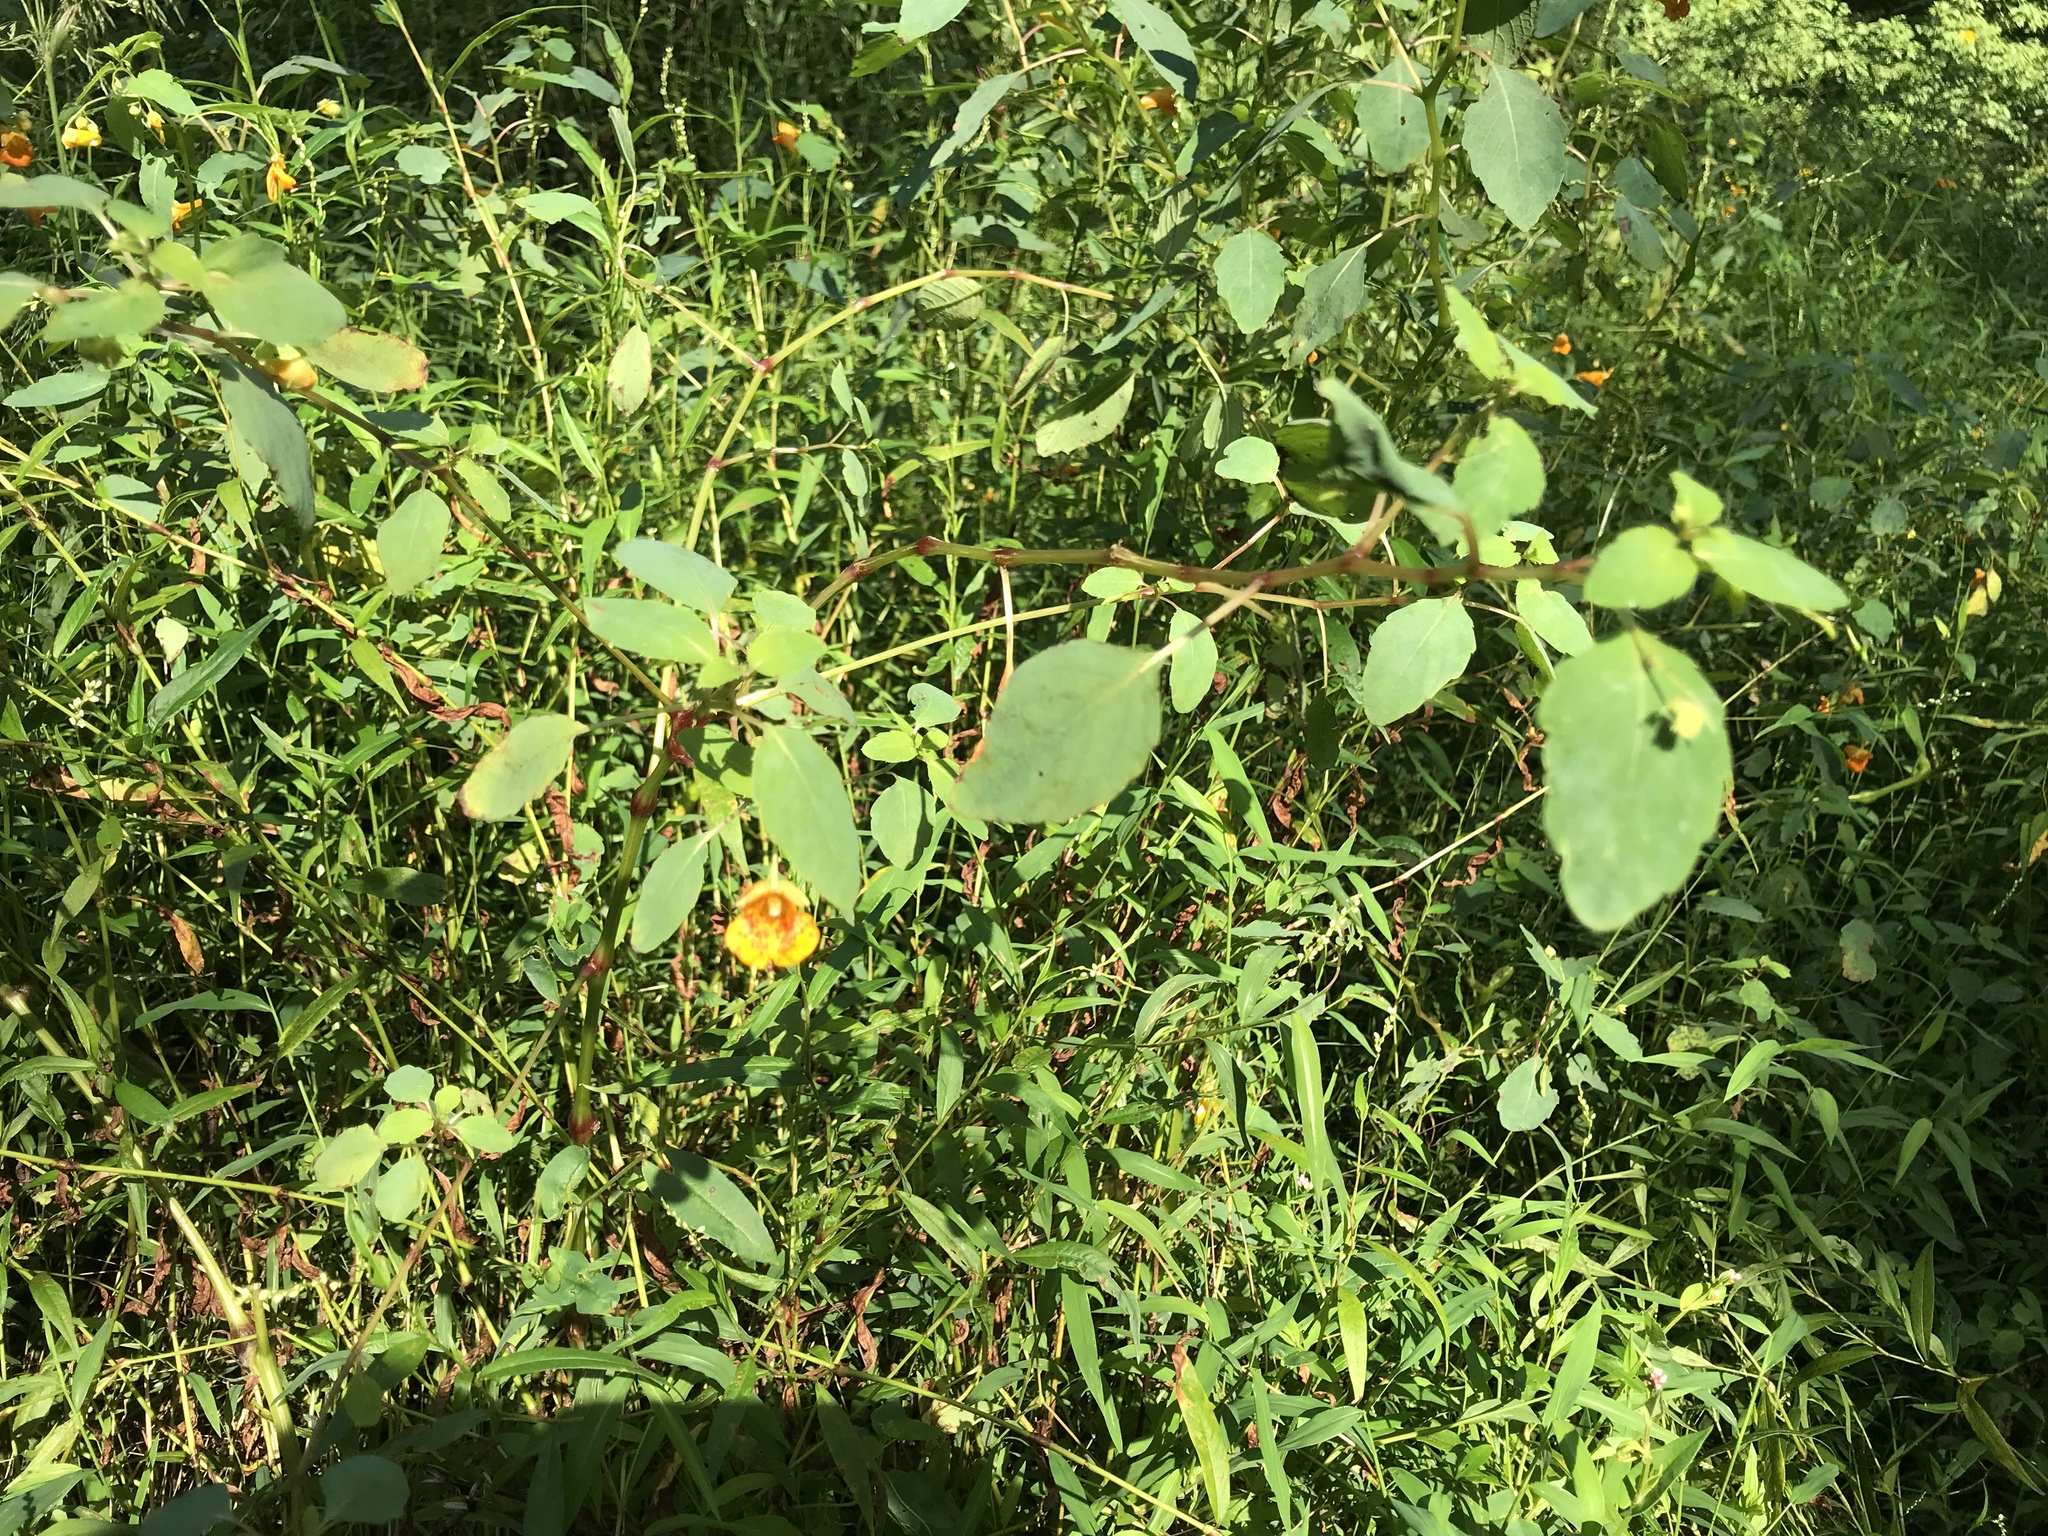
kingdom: Plantae
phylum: Tracheophyta
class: Magnoliopsida
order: Ericales
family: Balsaminaceae
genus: Impatiens
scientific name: Impatiens capensis
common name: Orange balsam
